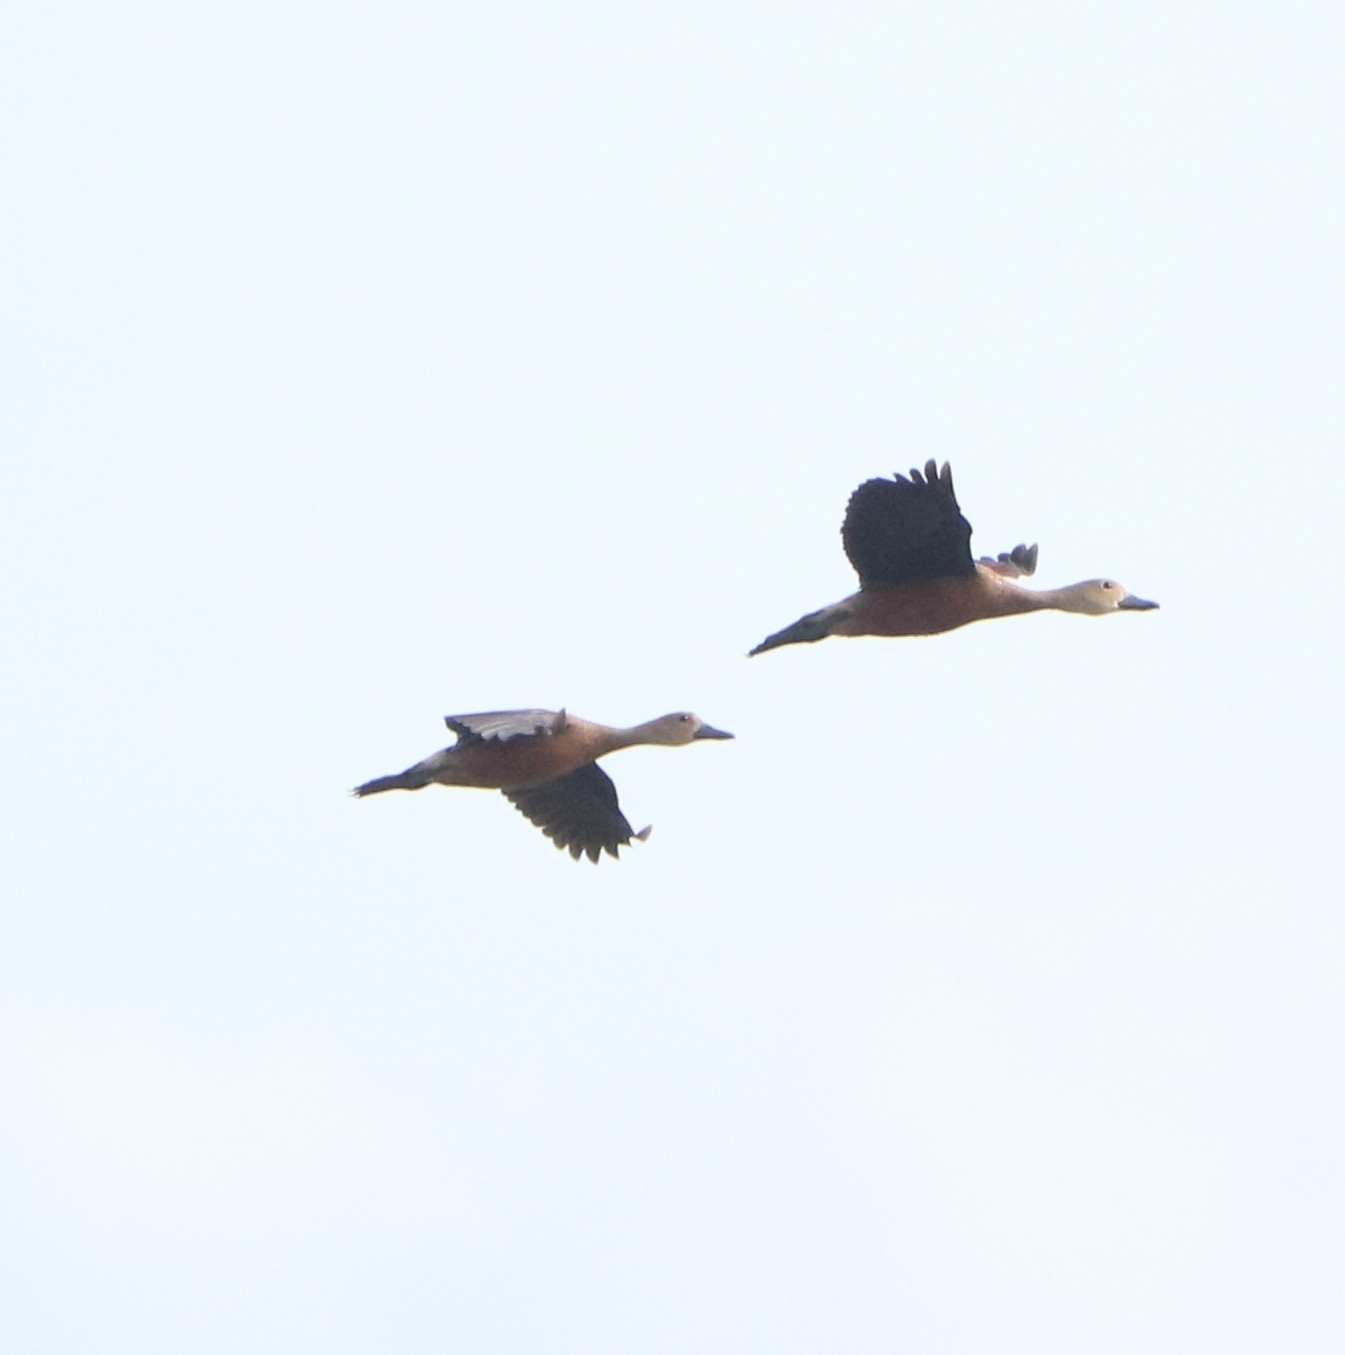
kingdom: Animalia
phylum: Chordata
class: Aves
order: Anseriformes
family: Anatidae
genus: Dendrocygna
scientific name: Dendrocygna javanica
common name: Lesser whistling-duck
